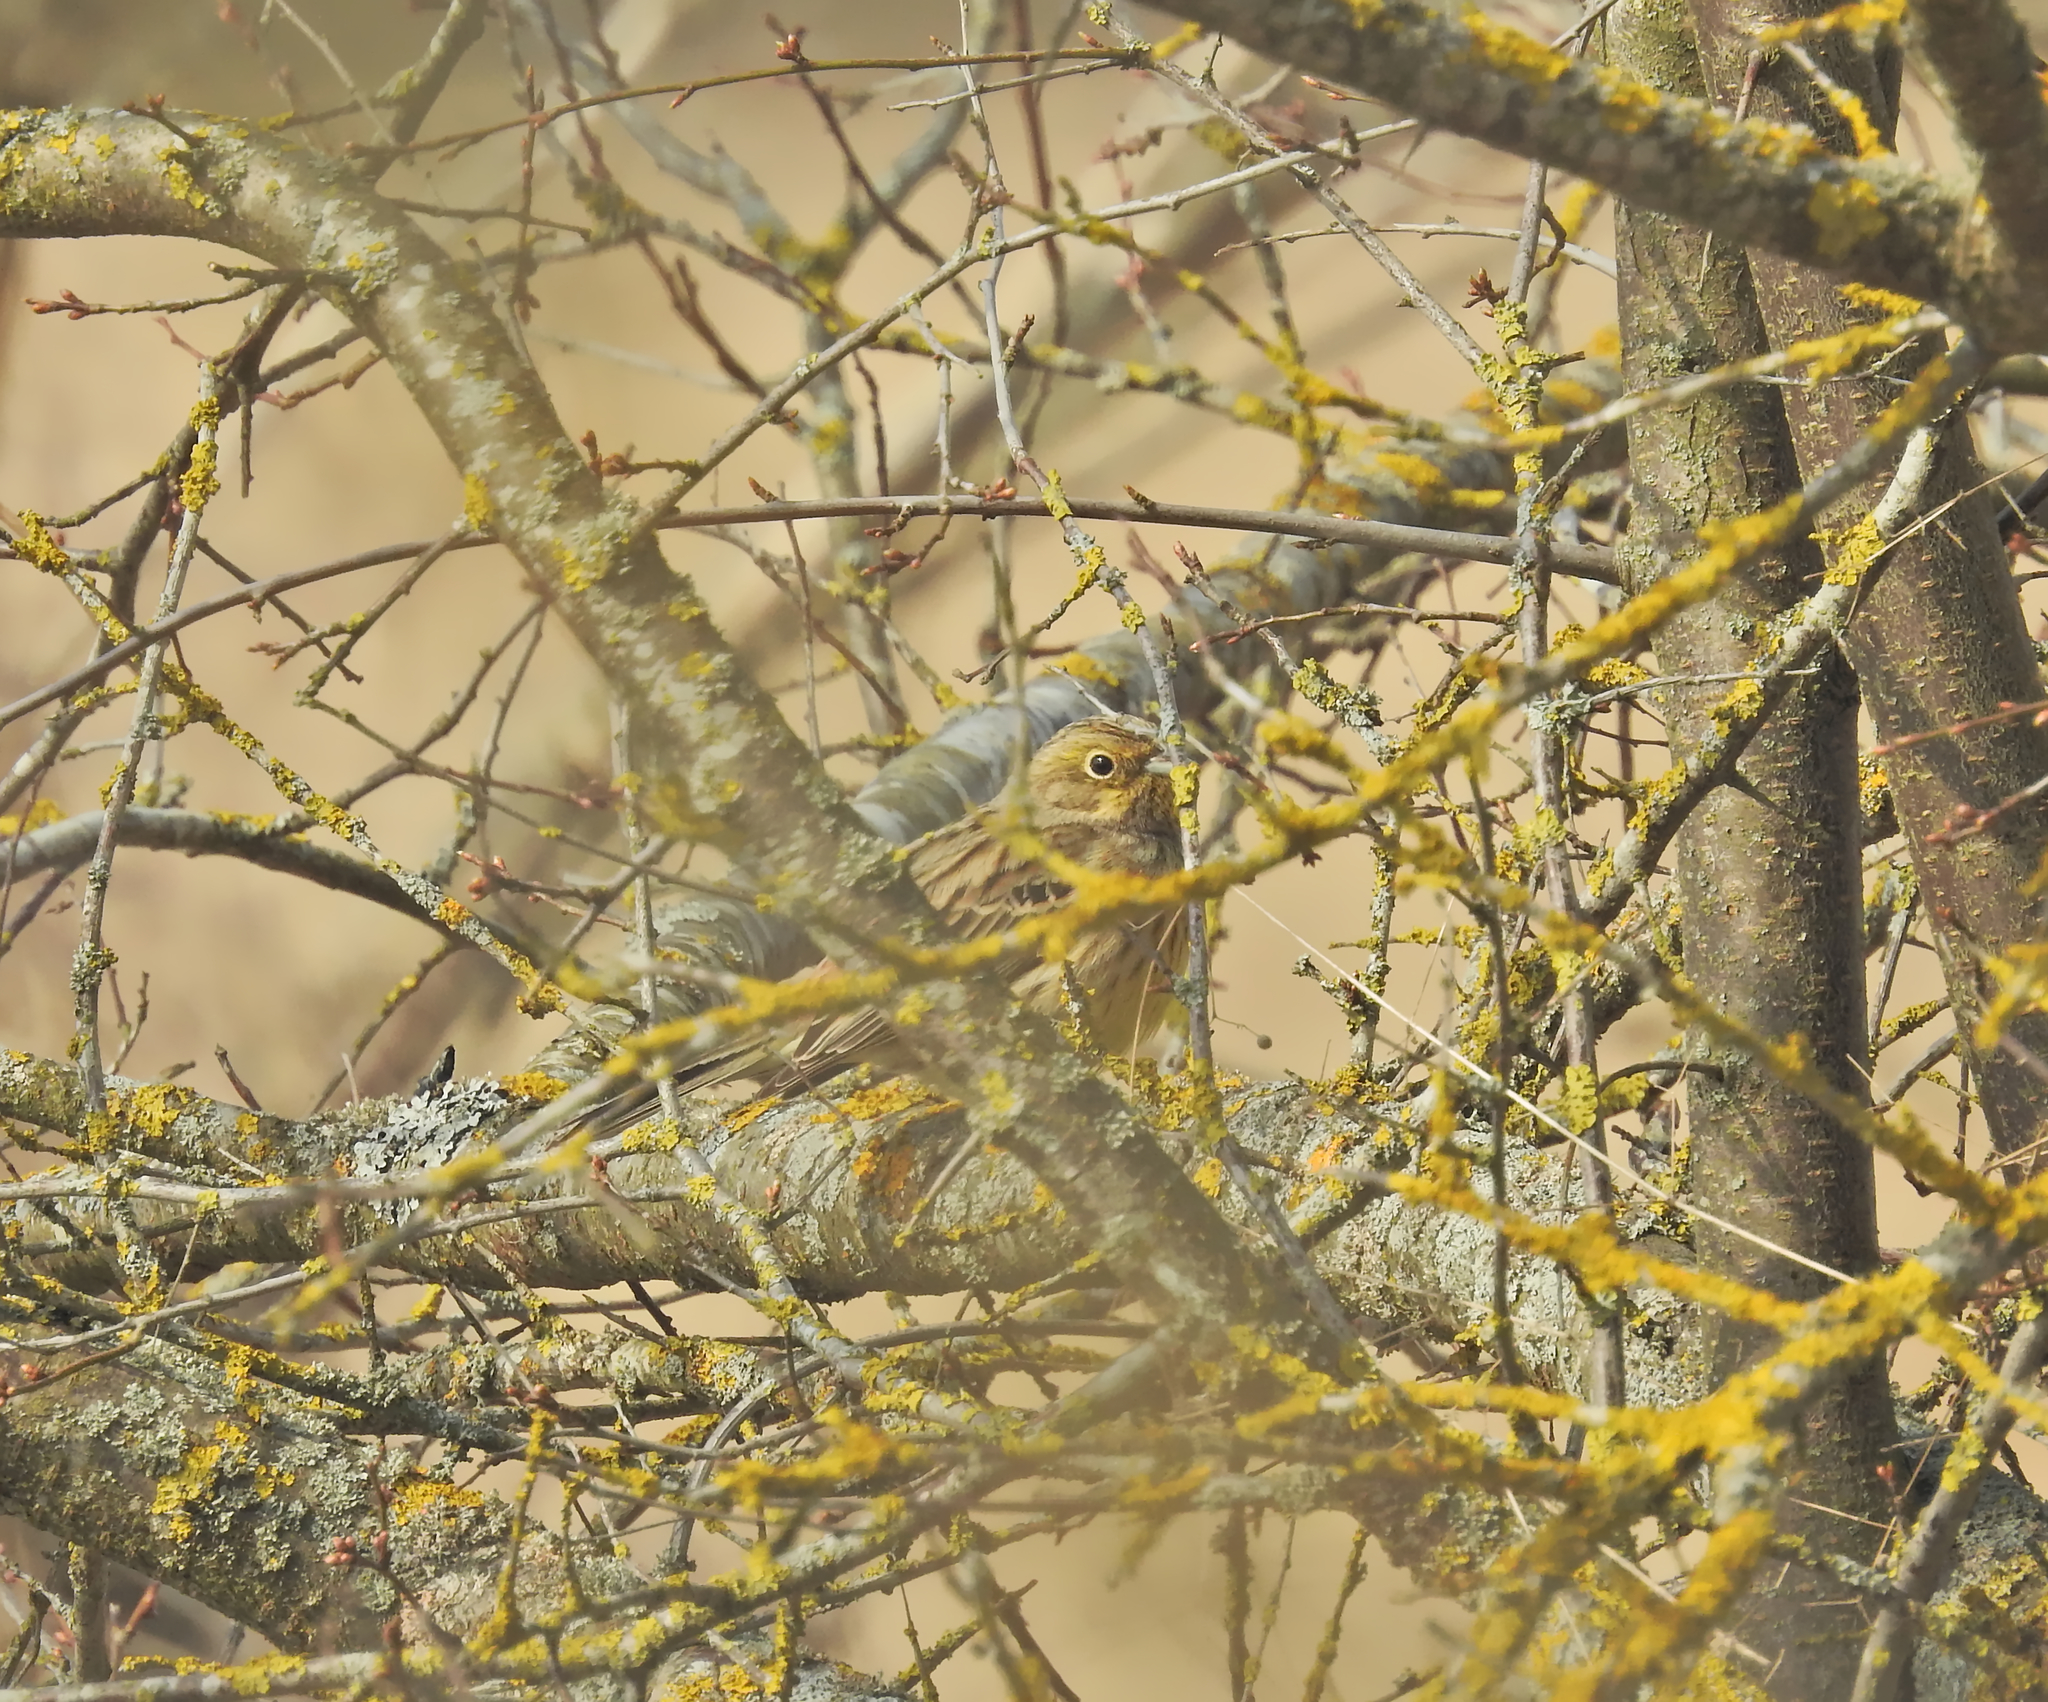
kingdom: Animalia
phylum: Chordata
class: Aves
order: Passeriformes
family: Emberizidae
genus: Emberiza
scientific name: Emberiza citrinella
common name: Yellowhammer
